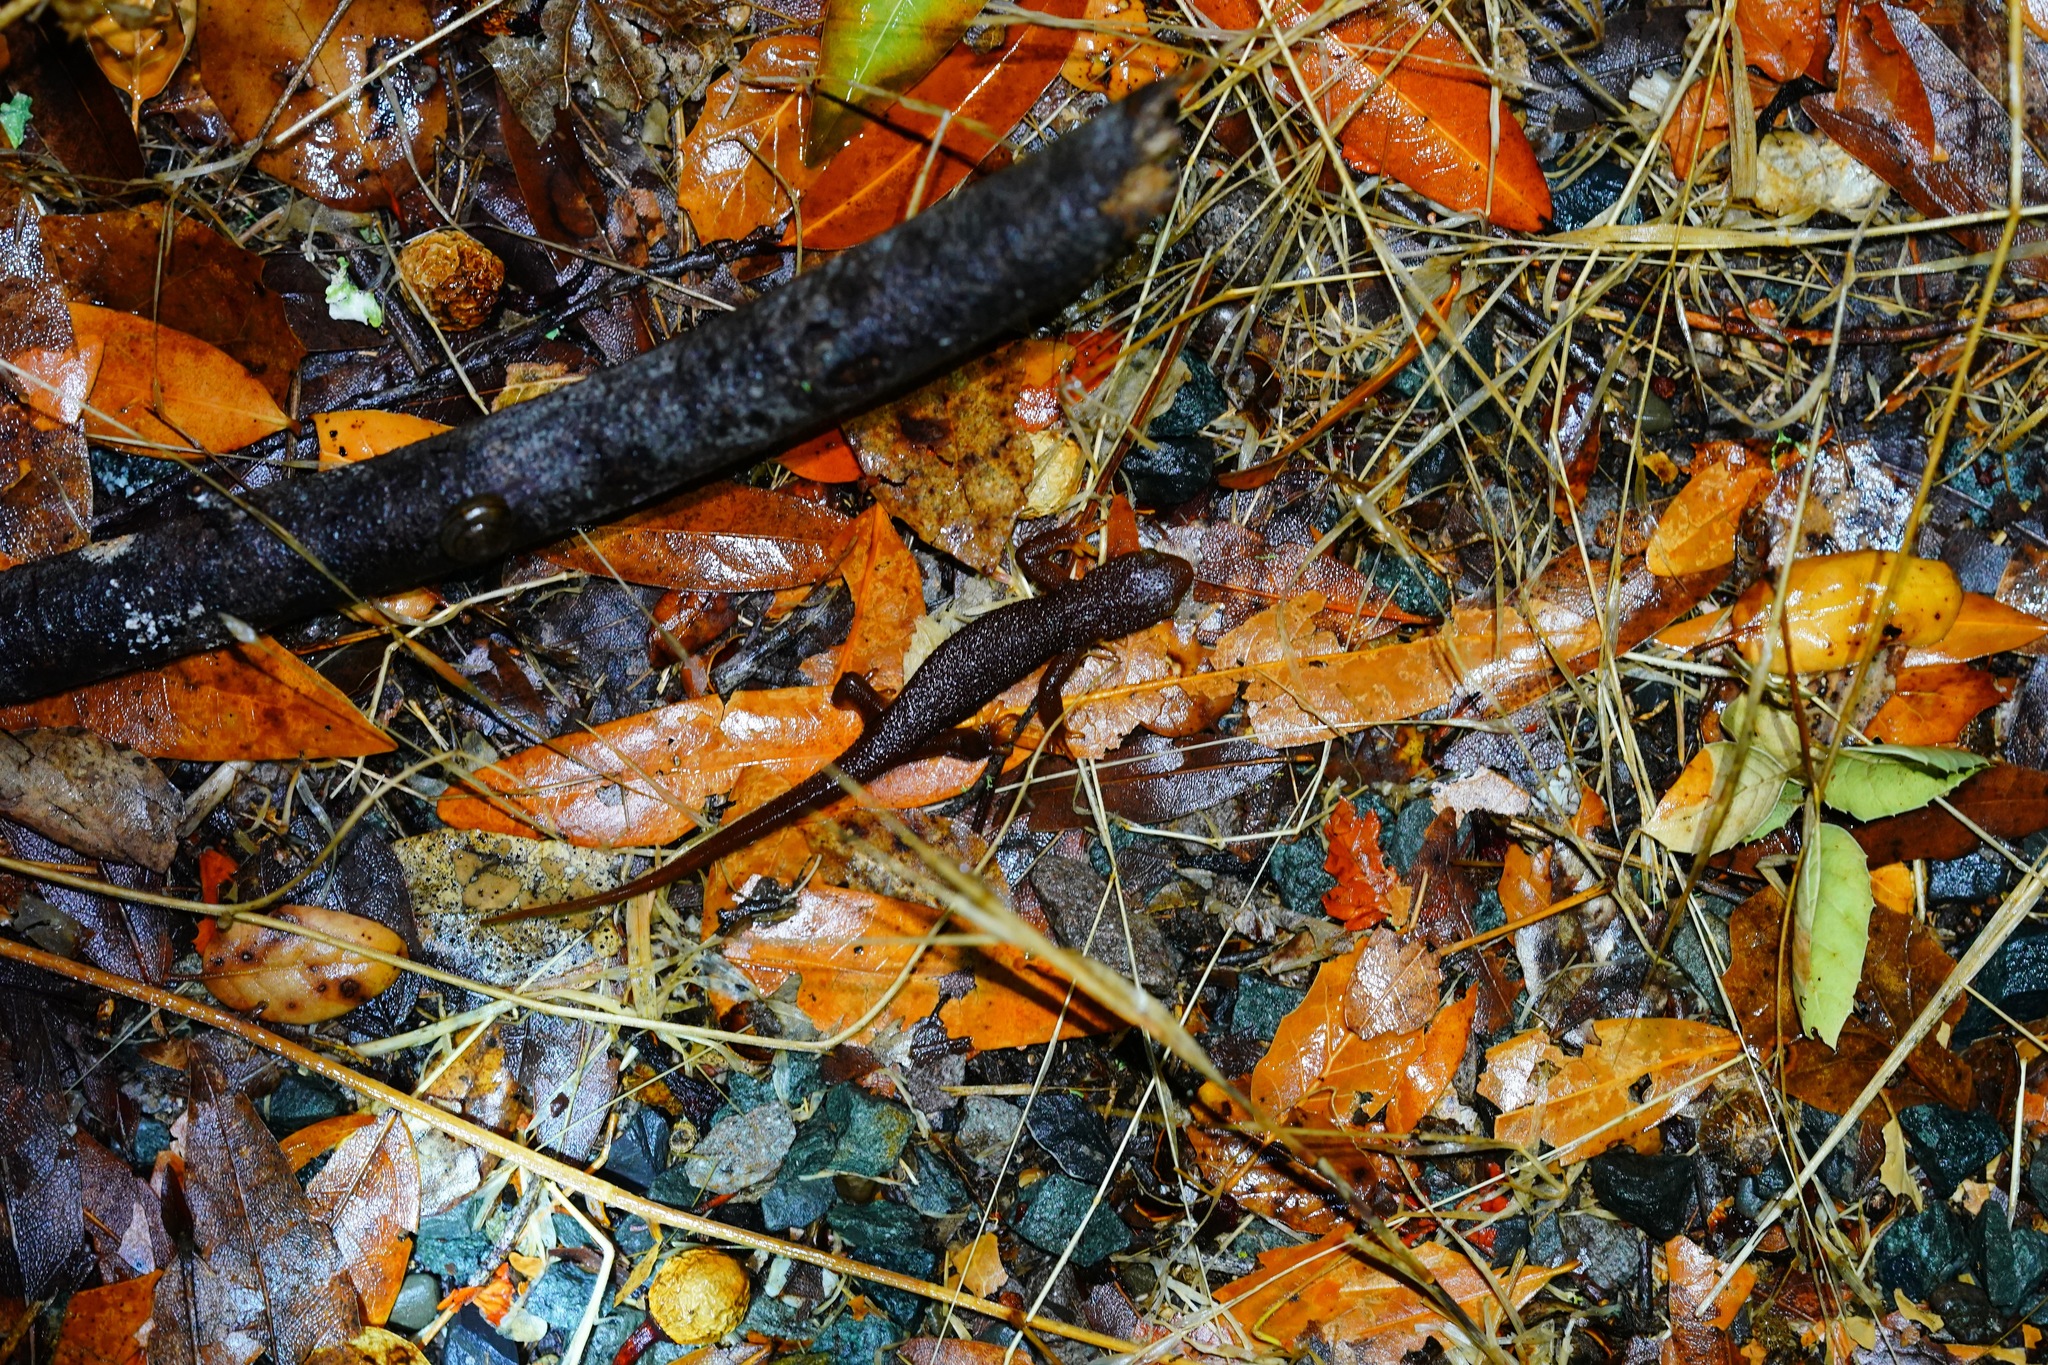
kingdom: Animalia
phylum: Chordata
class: Amphibia
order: Caudata
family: Salamandridae
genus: Taricha
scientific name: Taricha granulosa
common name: Roughskin newt
